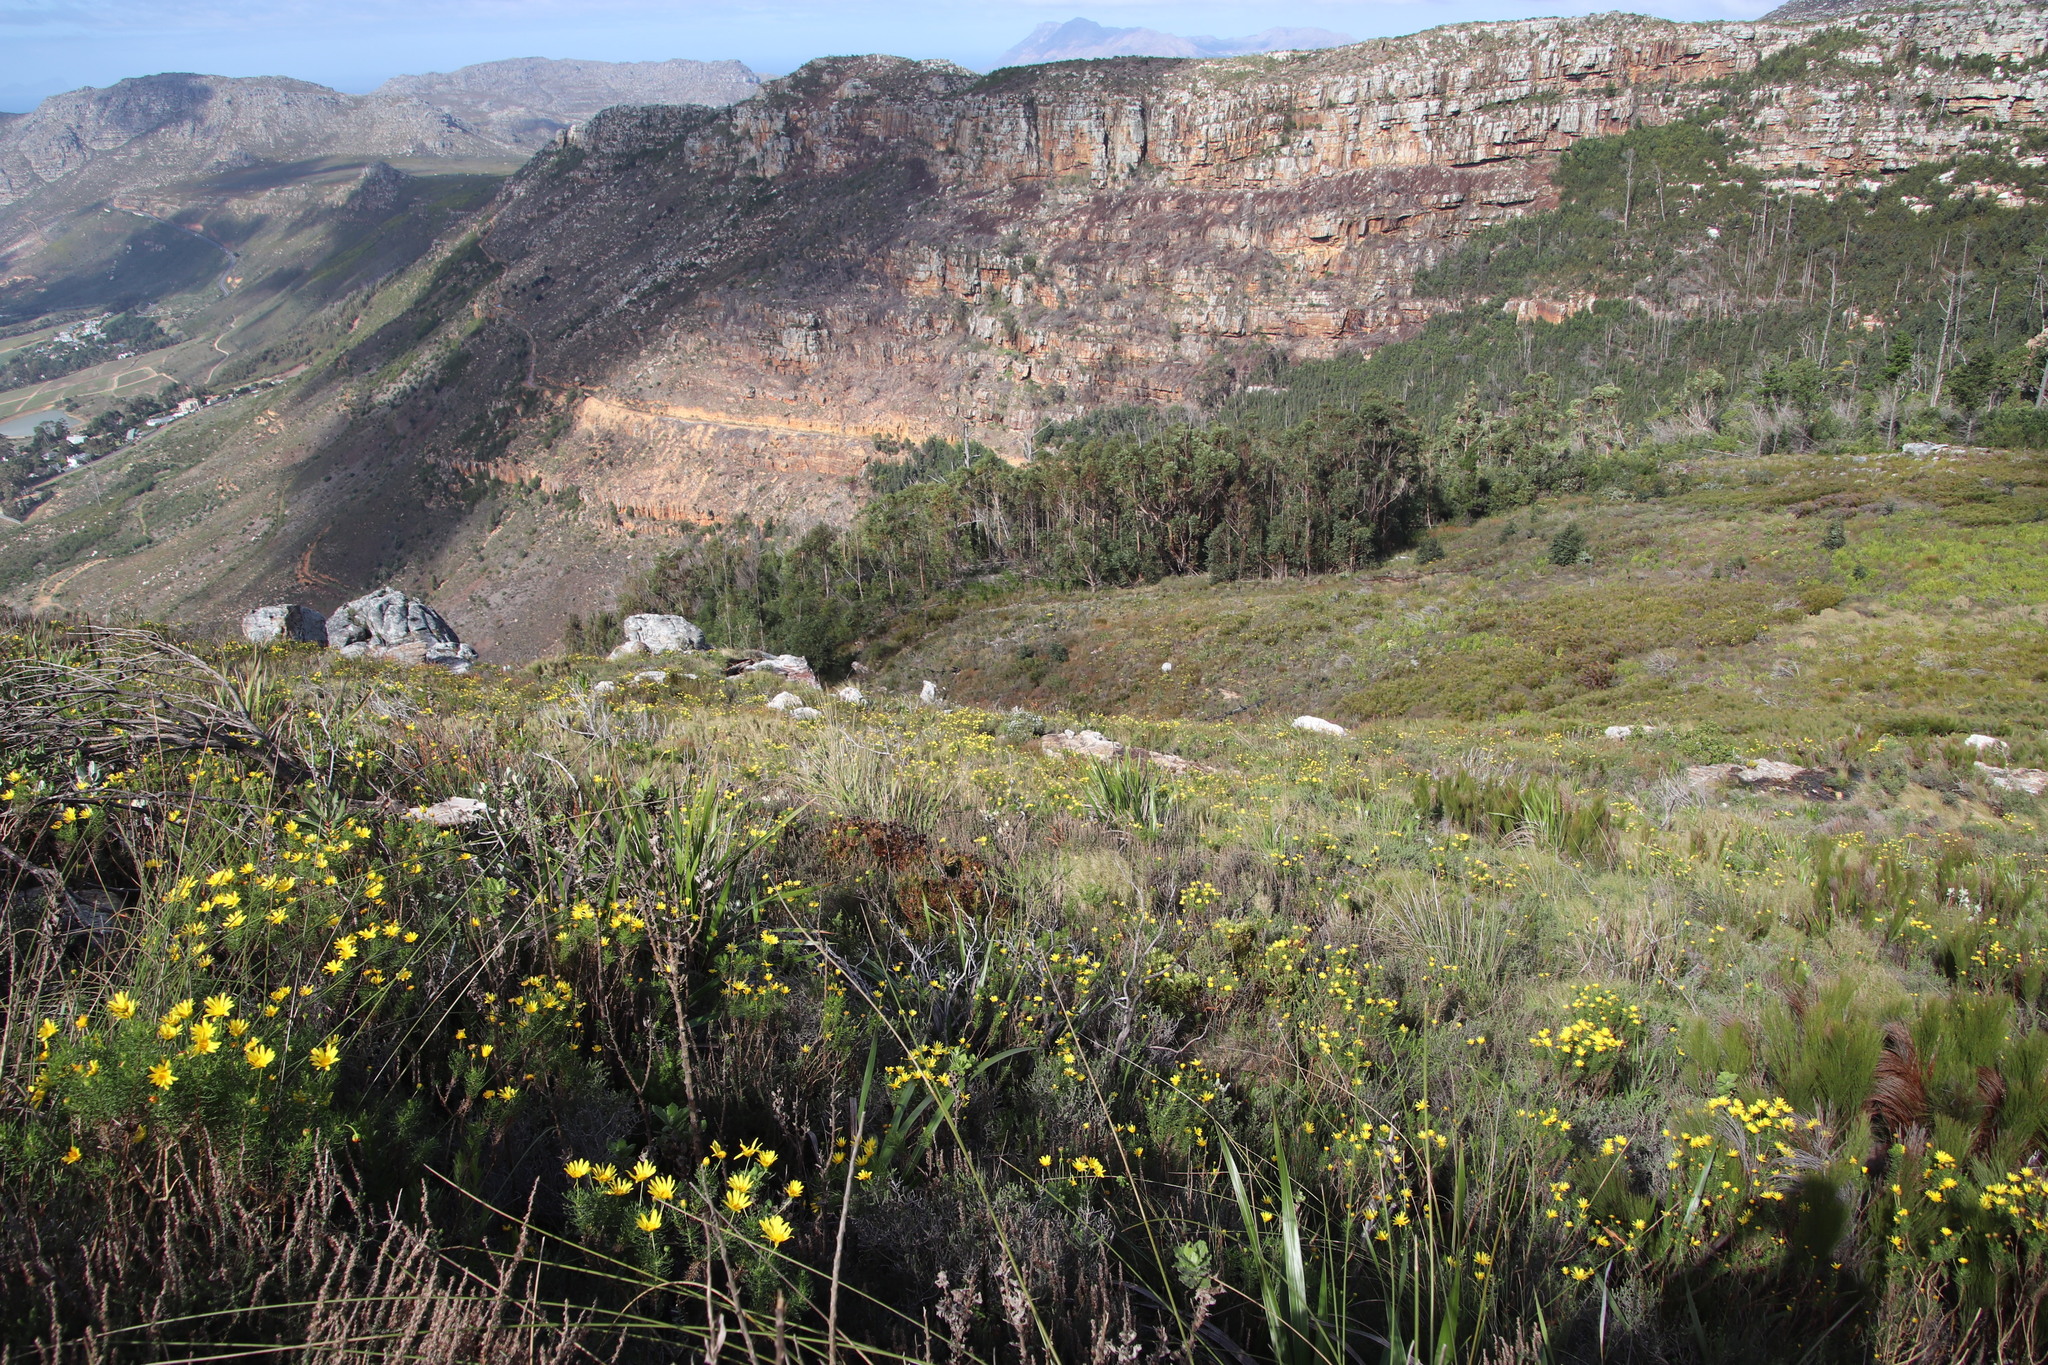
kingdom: Plantae
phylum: Tracheophyta
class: Magnoliopsida
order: Proteales
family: Proteaceae
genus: Leucadendron
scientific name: Leucadendron spissifolium
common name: Spear-leaf conebush
